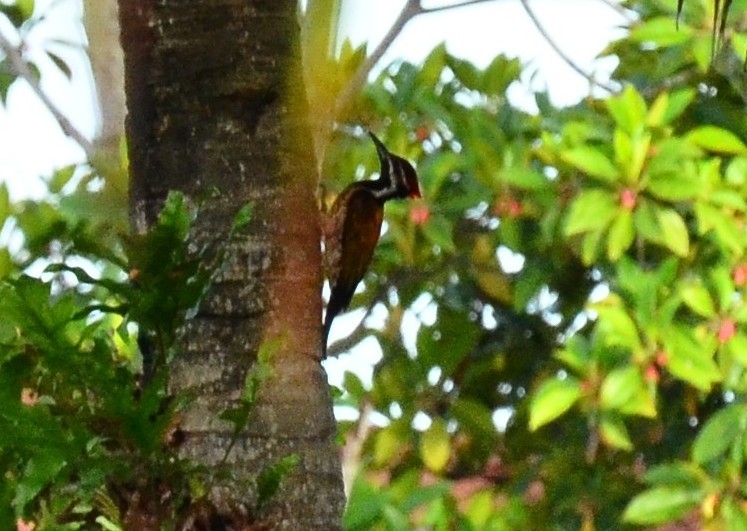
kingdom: Animalia
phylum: Chordata
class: Aves
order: Piciformes
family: Picidae
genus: Dinopium
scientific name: Dinopium benghalense
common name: Black-rumped flameback
